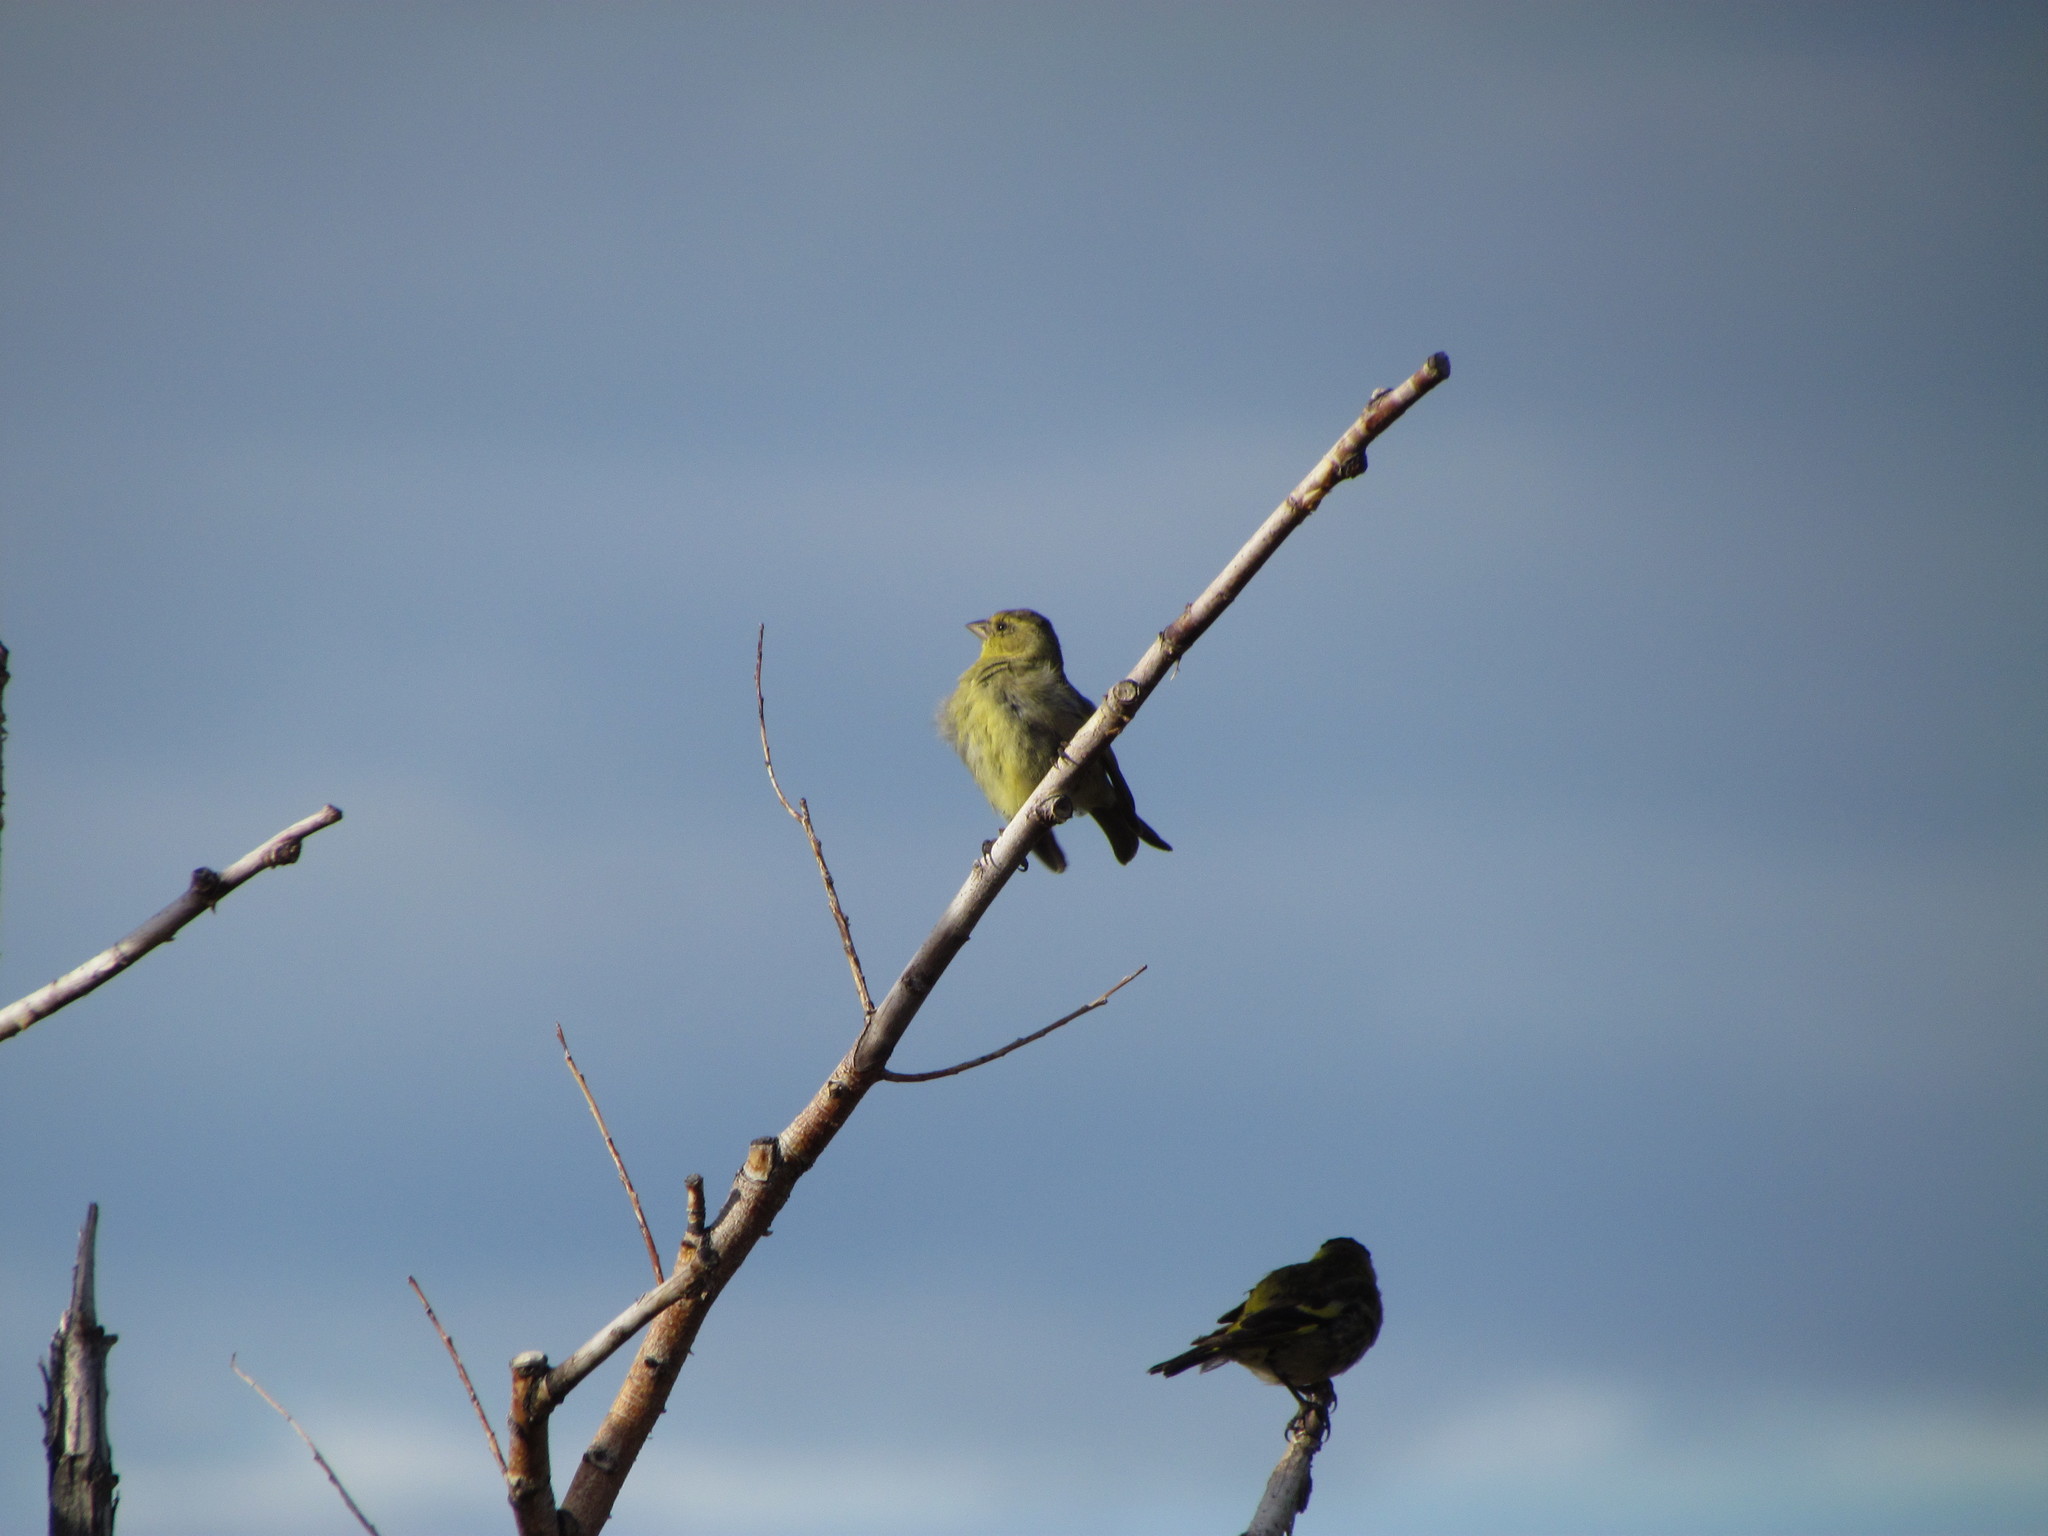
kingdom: Animalia
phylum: Chordata
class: Aves
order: Passeriformes
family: Fringillidae
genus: Spinus
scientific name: Spinus barbatus
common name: Black-chinned siskin
